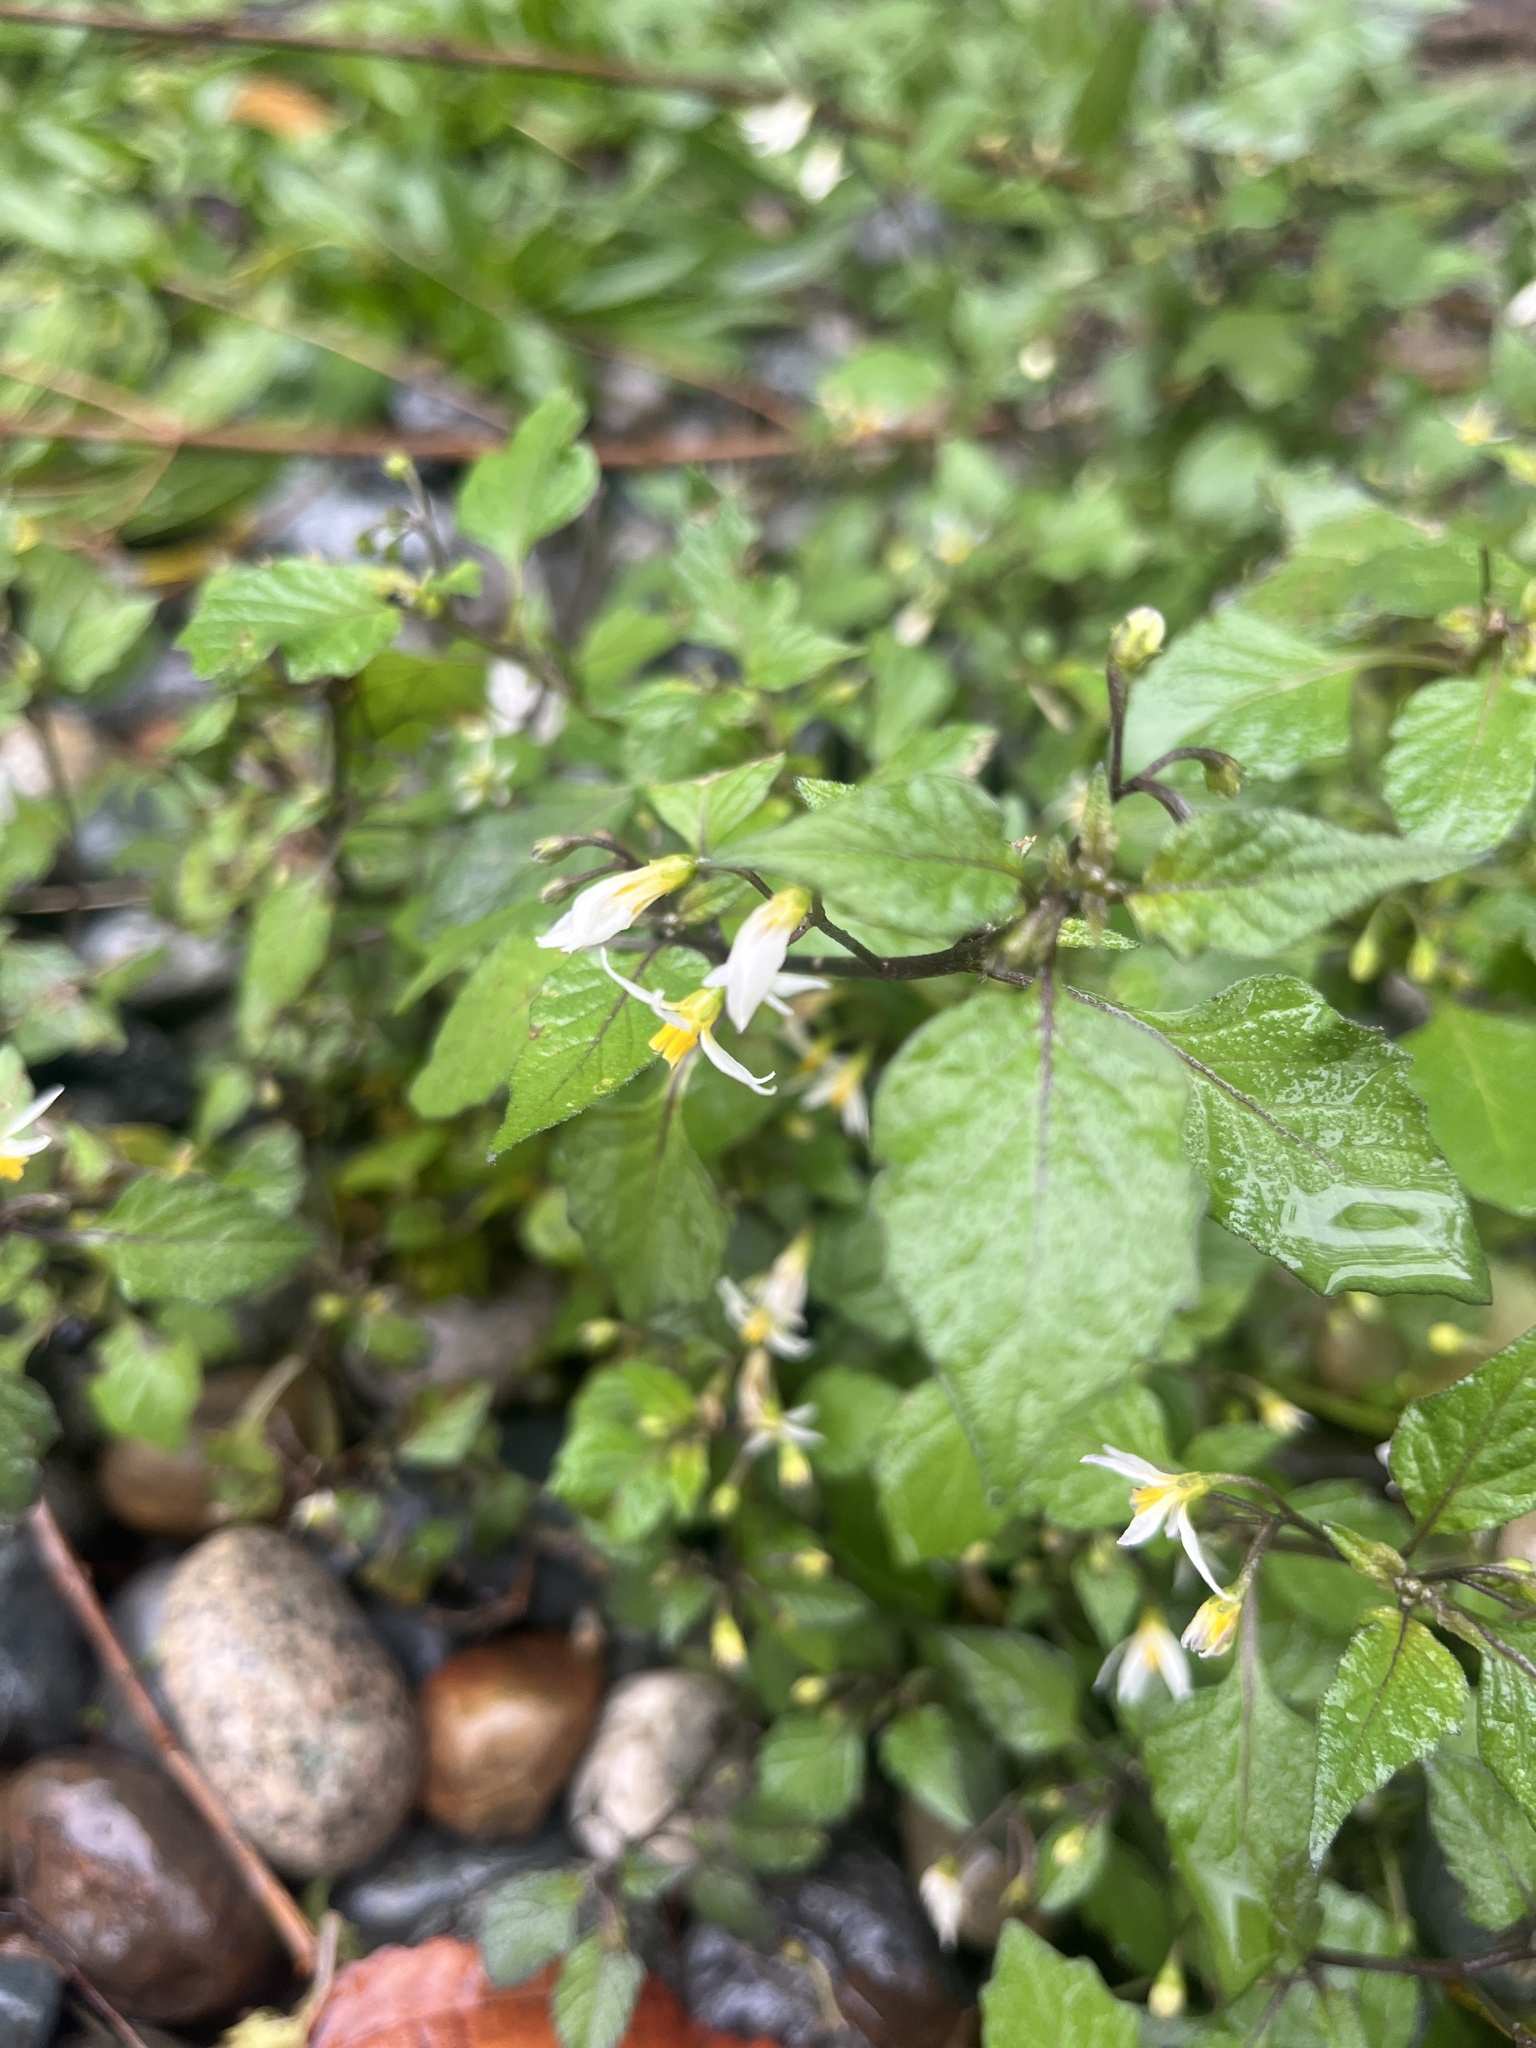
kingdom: Plantae
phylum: Tracheophyta
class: Magnoliopsida
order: Solanales
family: Solanaceae
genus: Solanum
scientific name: Solanum nigrum
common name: Black nightshade
